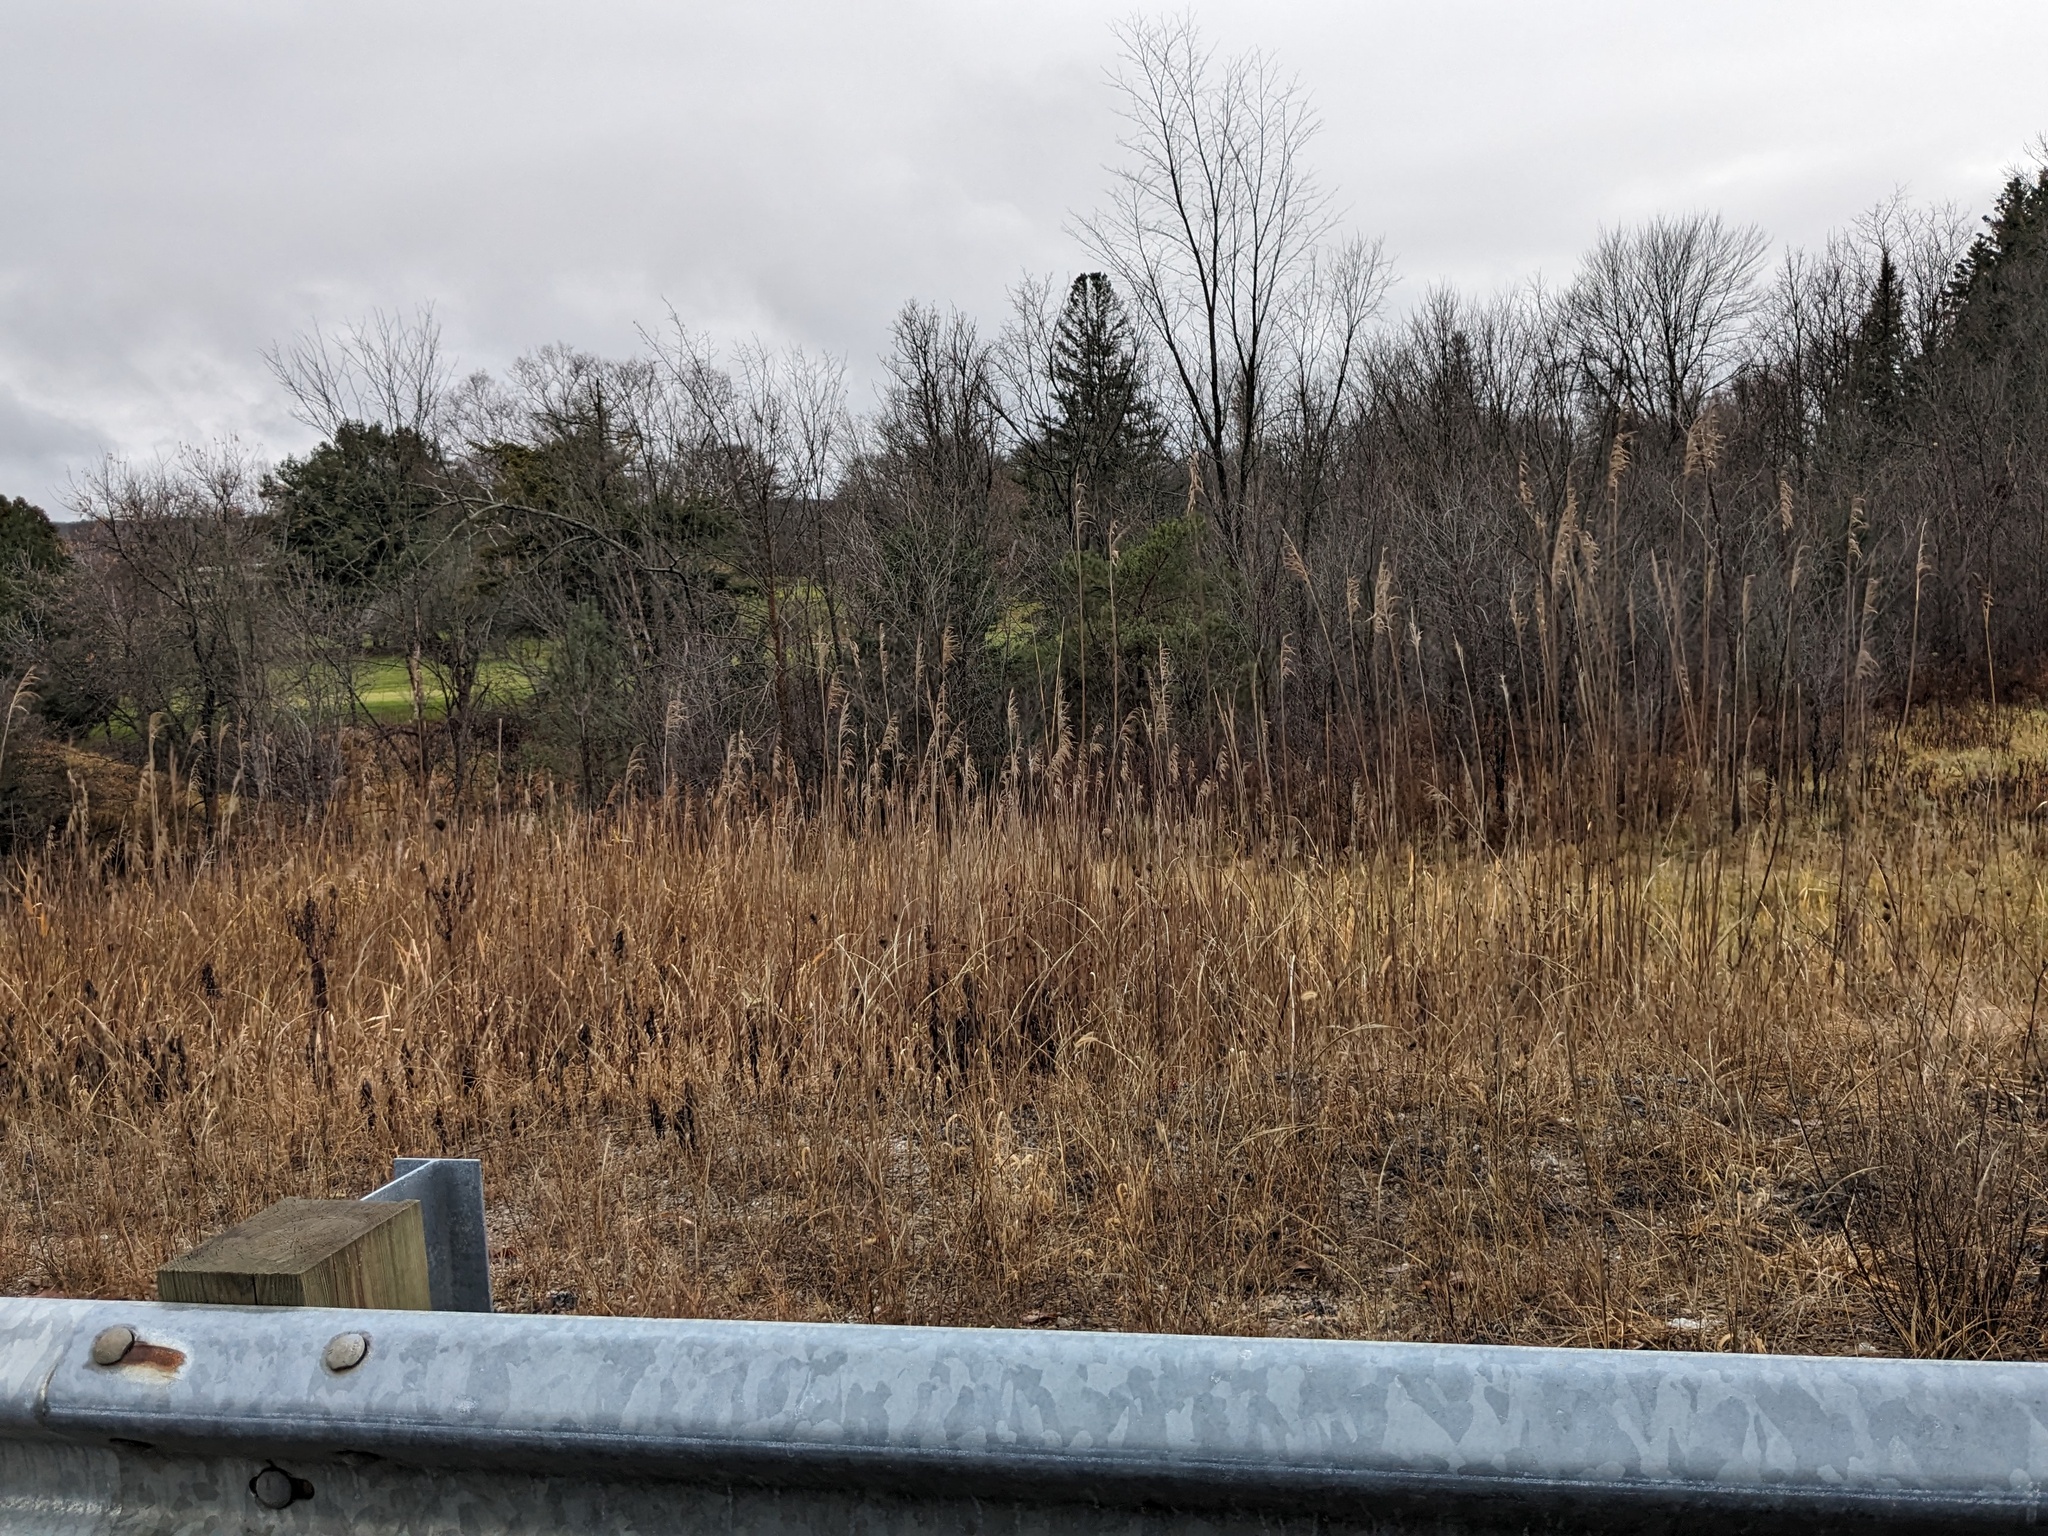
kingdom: Plantae
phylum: Tracheophyta
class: Liliopsida
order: Poales
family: Poaceae
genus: Phragmites
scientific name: Phragmites australis
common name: Common reed
